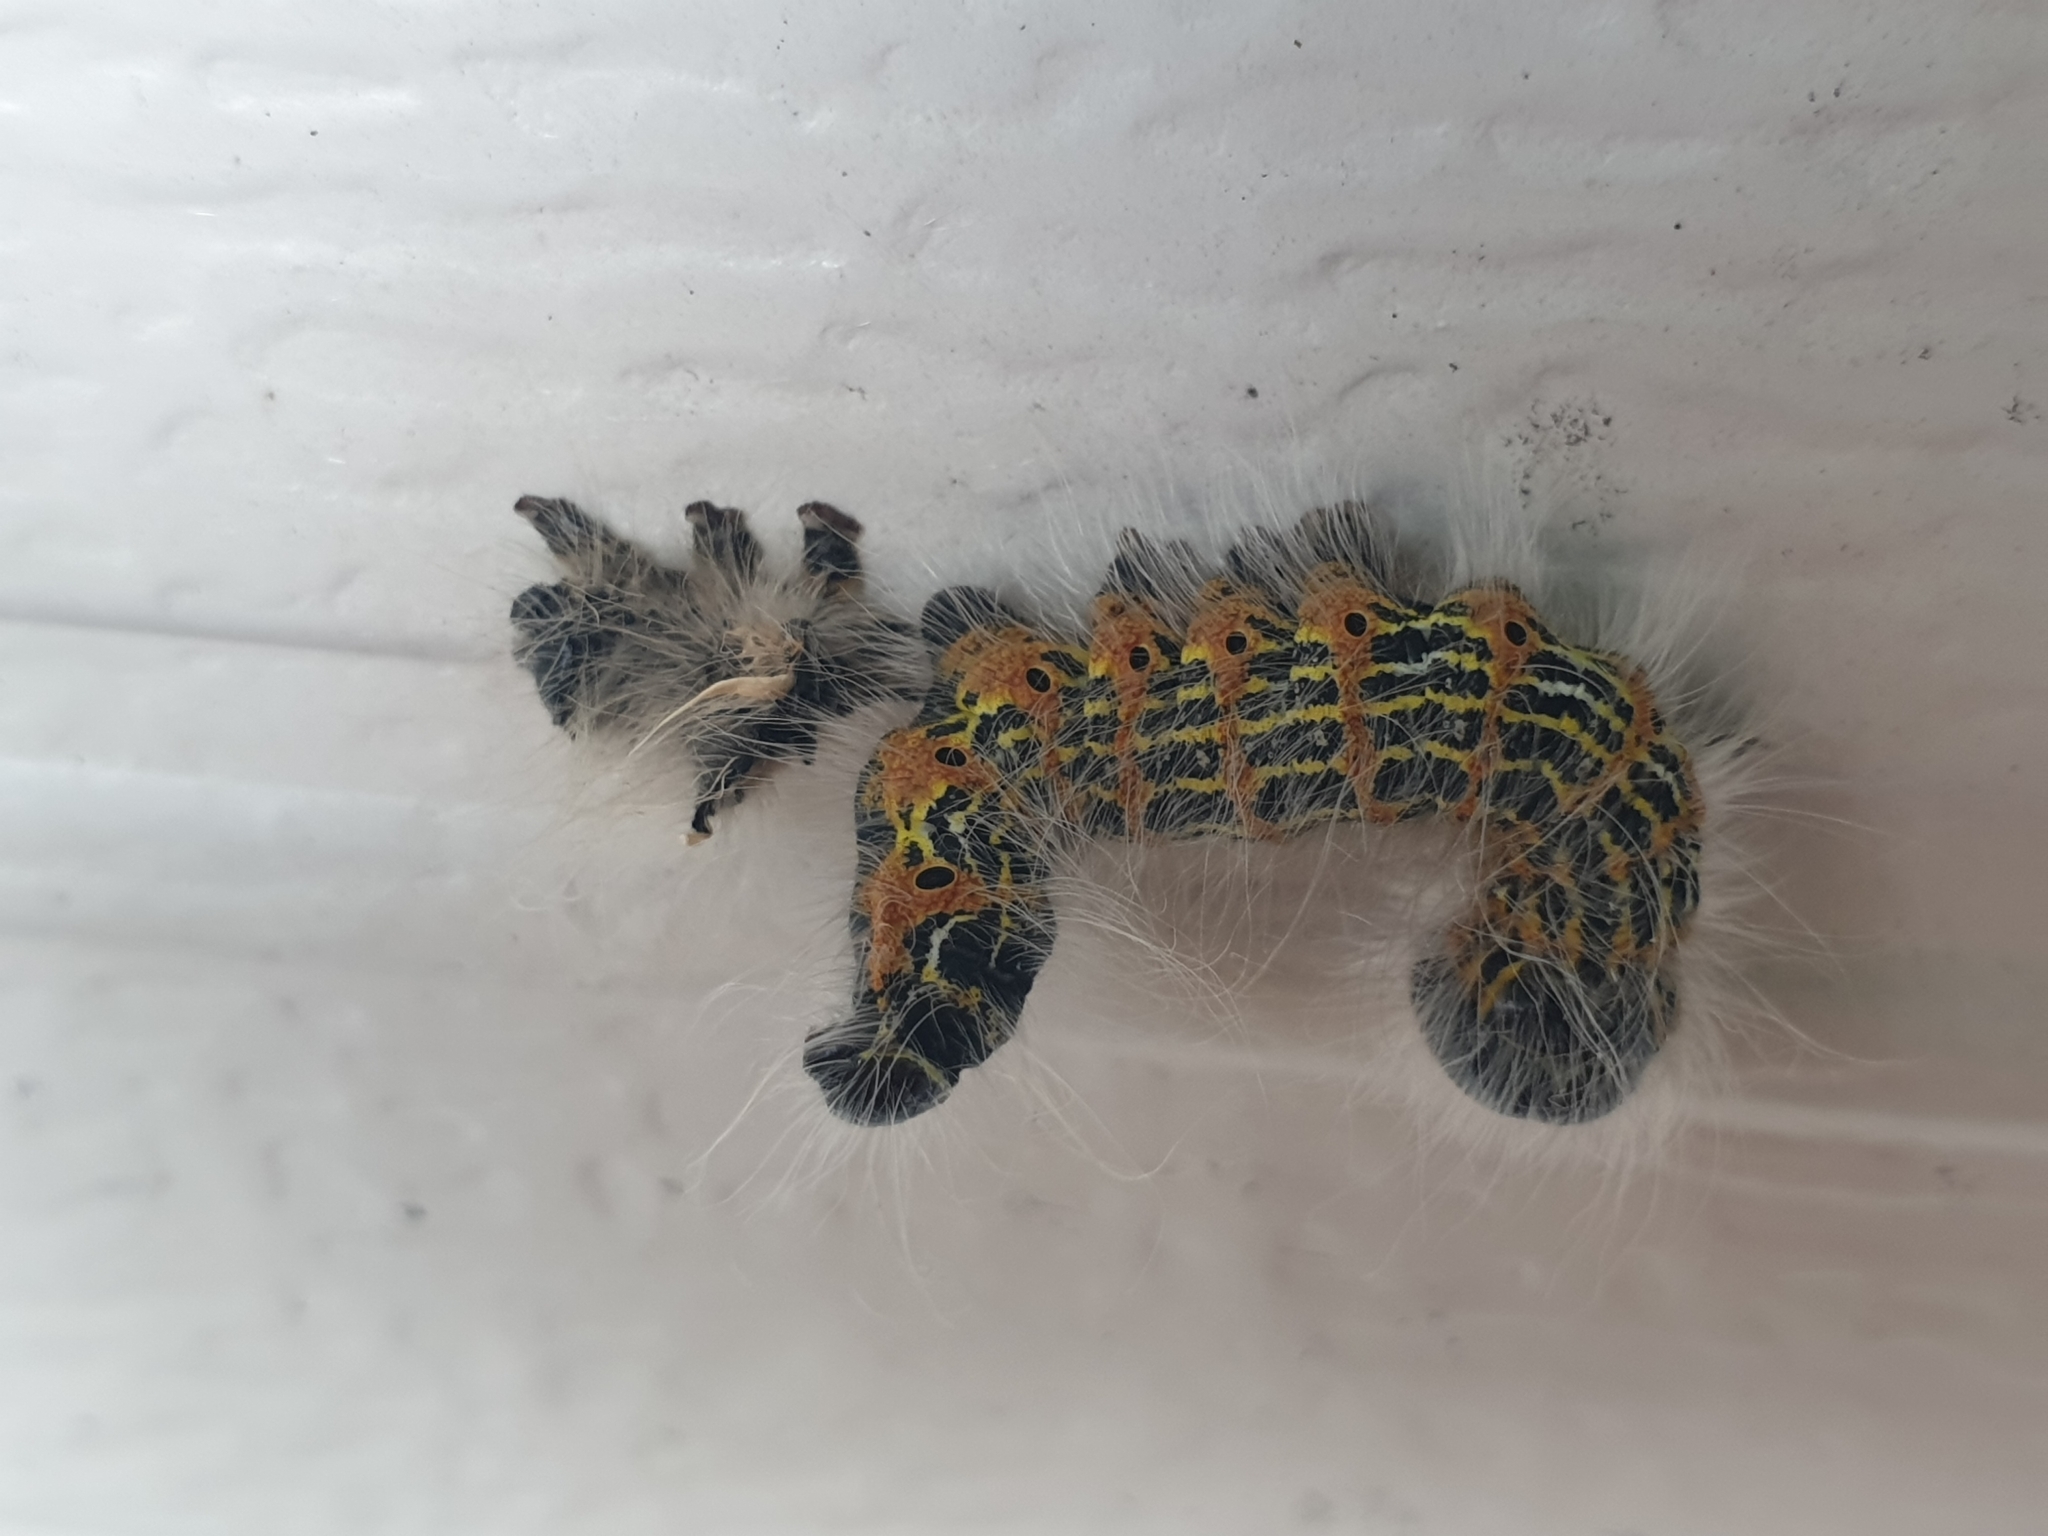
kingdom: Animalia
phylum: Arthropoda
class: Insecta
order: Lepidoptera
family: Notodontidae
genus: Phalera
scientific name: Phalera bucephala
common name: Buff-tip
